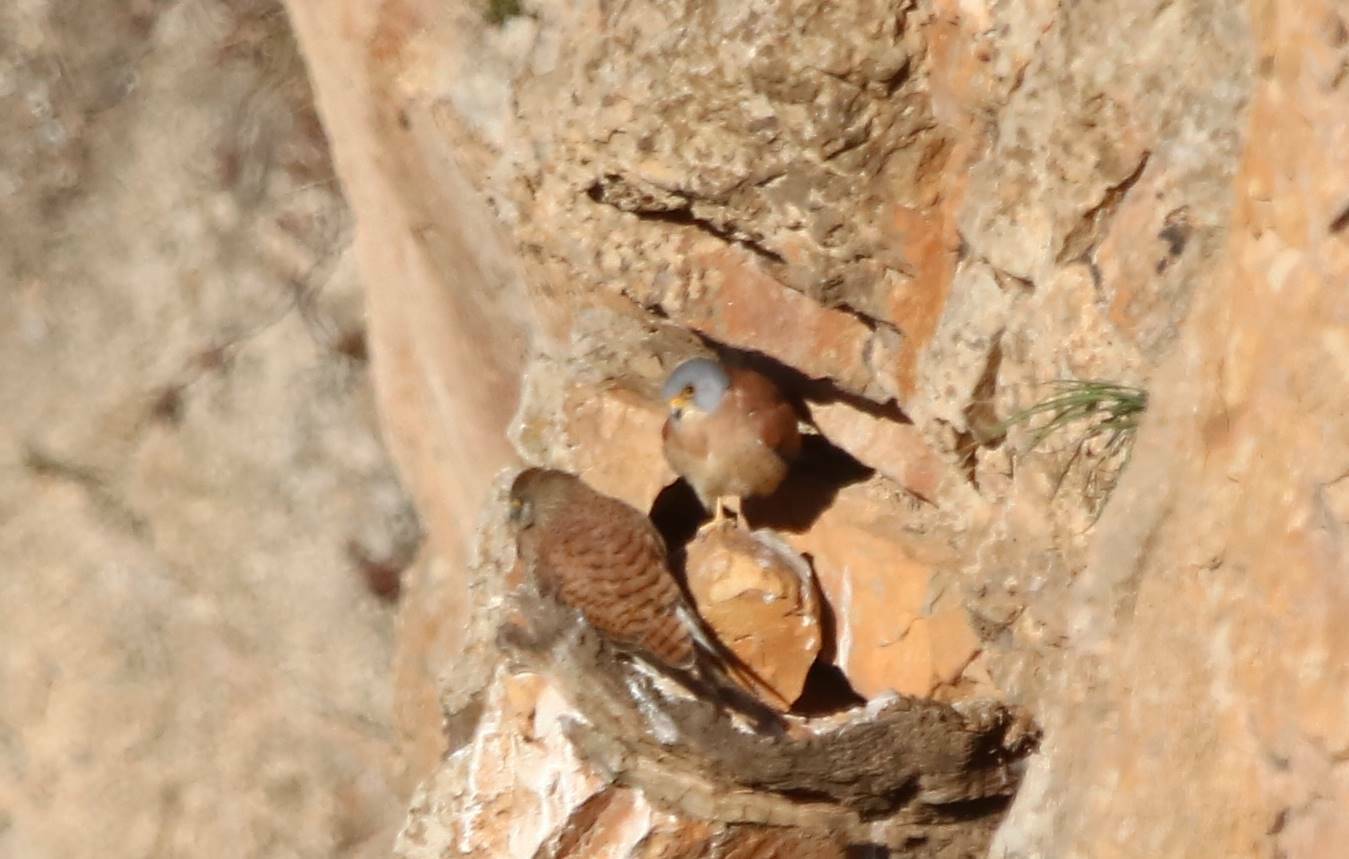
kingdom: Animalia
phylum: Chordata
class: Aves
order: Falconiformes
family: Falconidae
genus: Falco
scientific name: Falco naumanni
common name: Lesser kestrel
